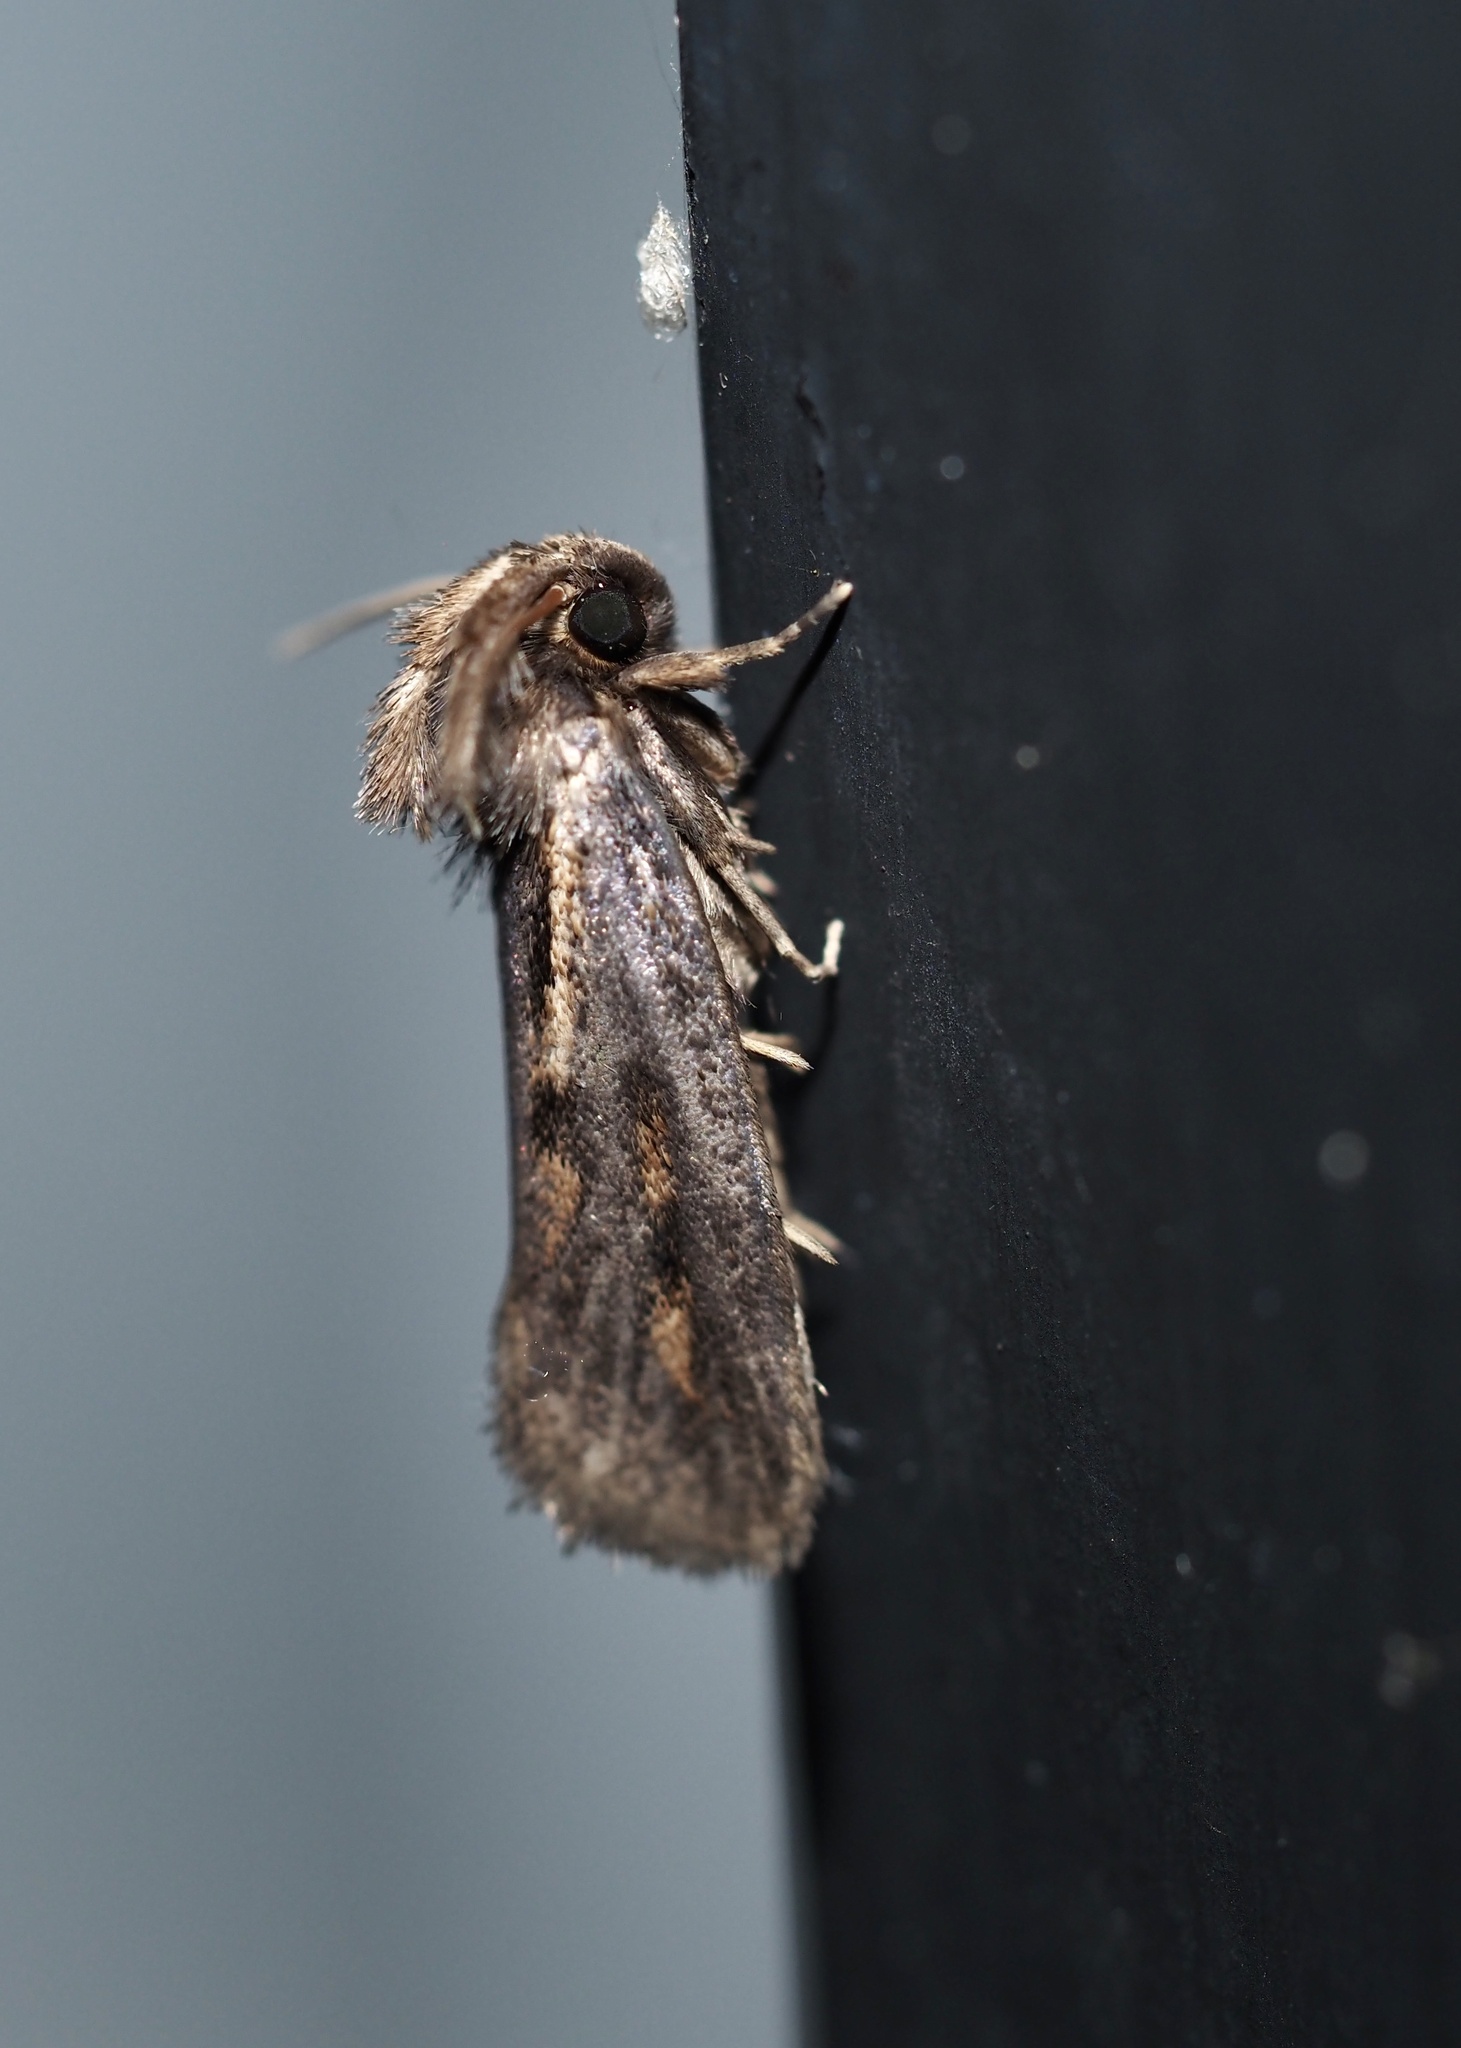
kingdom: Animalia
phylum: Arthropoda
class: Insecta
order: Lepidoptera
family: Tineidae
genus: Acrolophus
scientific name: Acrolophus popeanella
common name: Clemens' grass tubeworm moth
